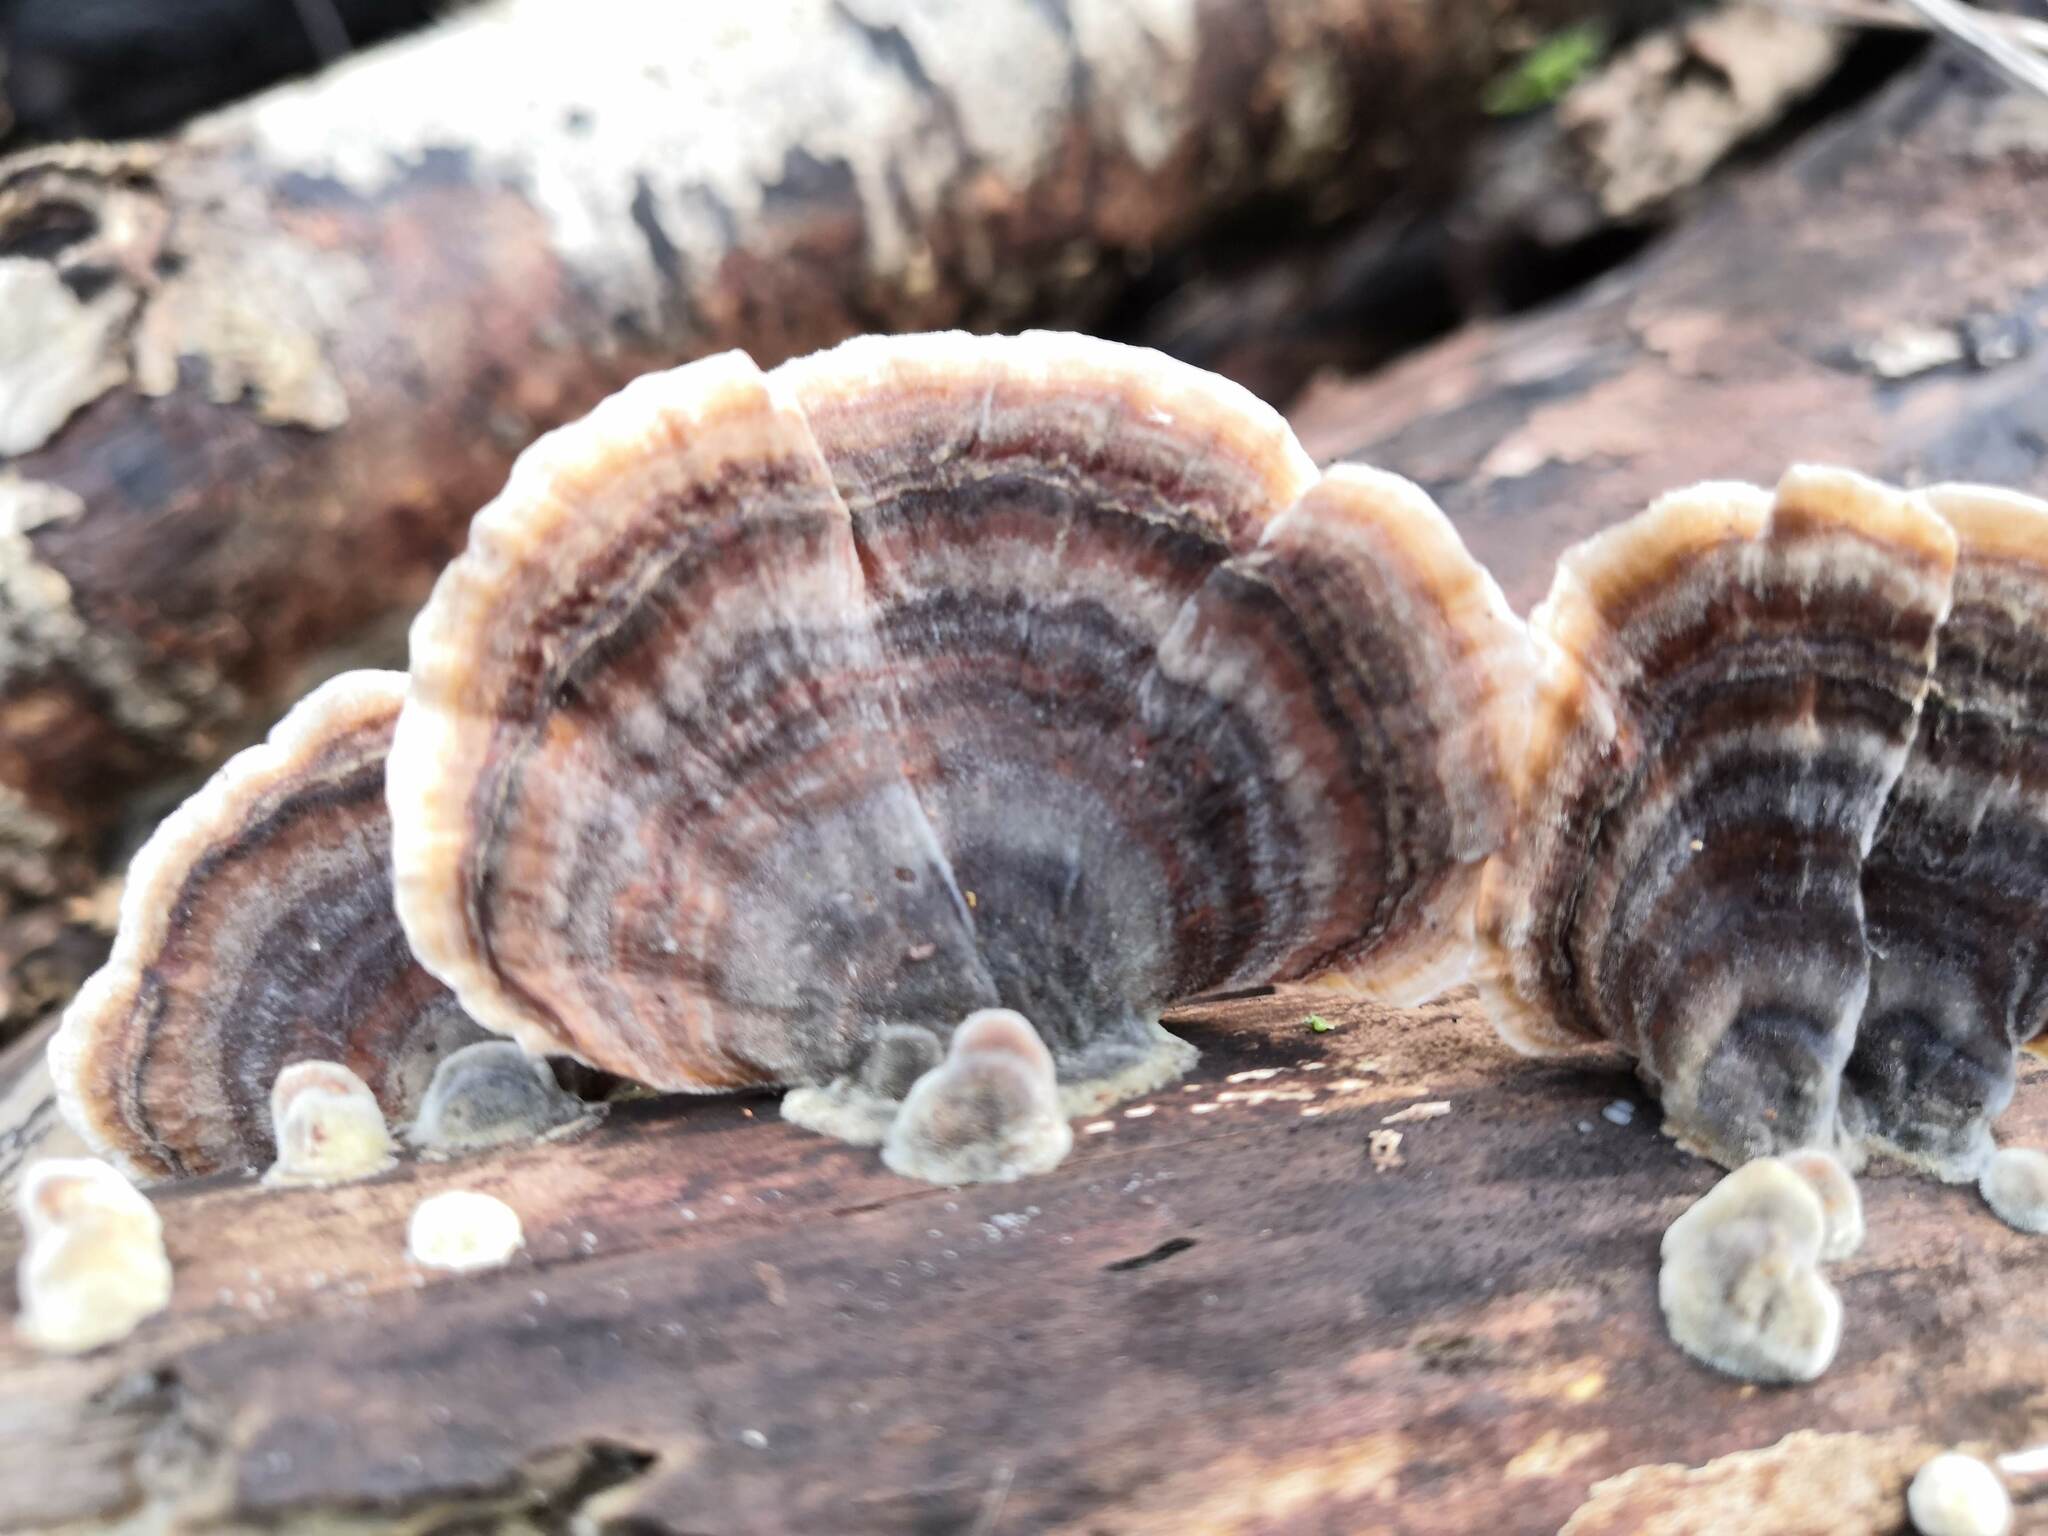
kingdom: Fungi
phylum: Basidiomycota
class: Agaricomycetes
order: Polyporales
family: Polyporaceae
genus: Trametes
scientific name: Trametes versicolor
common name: Turkeytail
